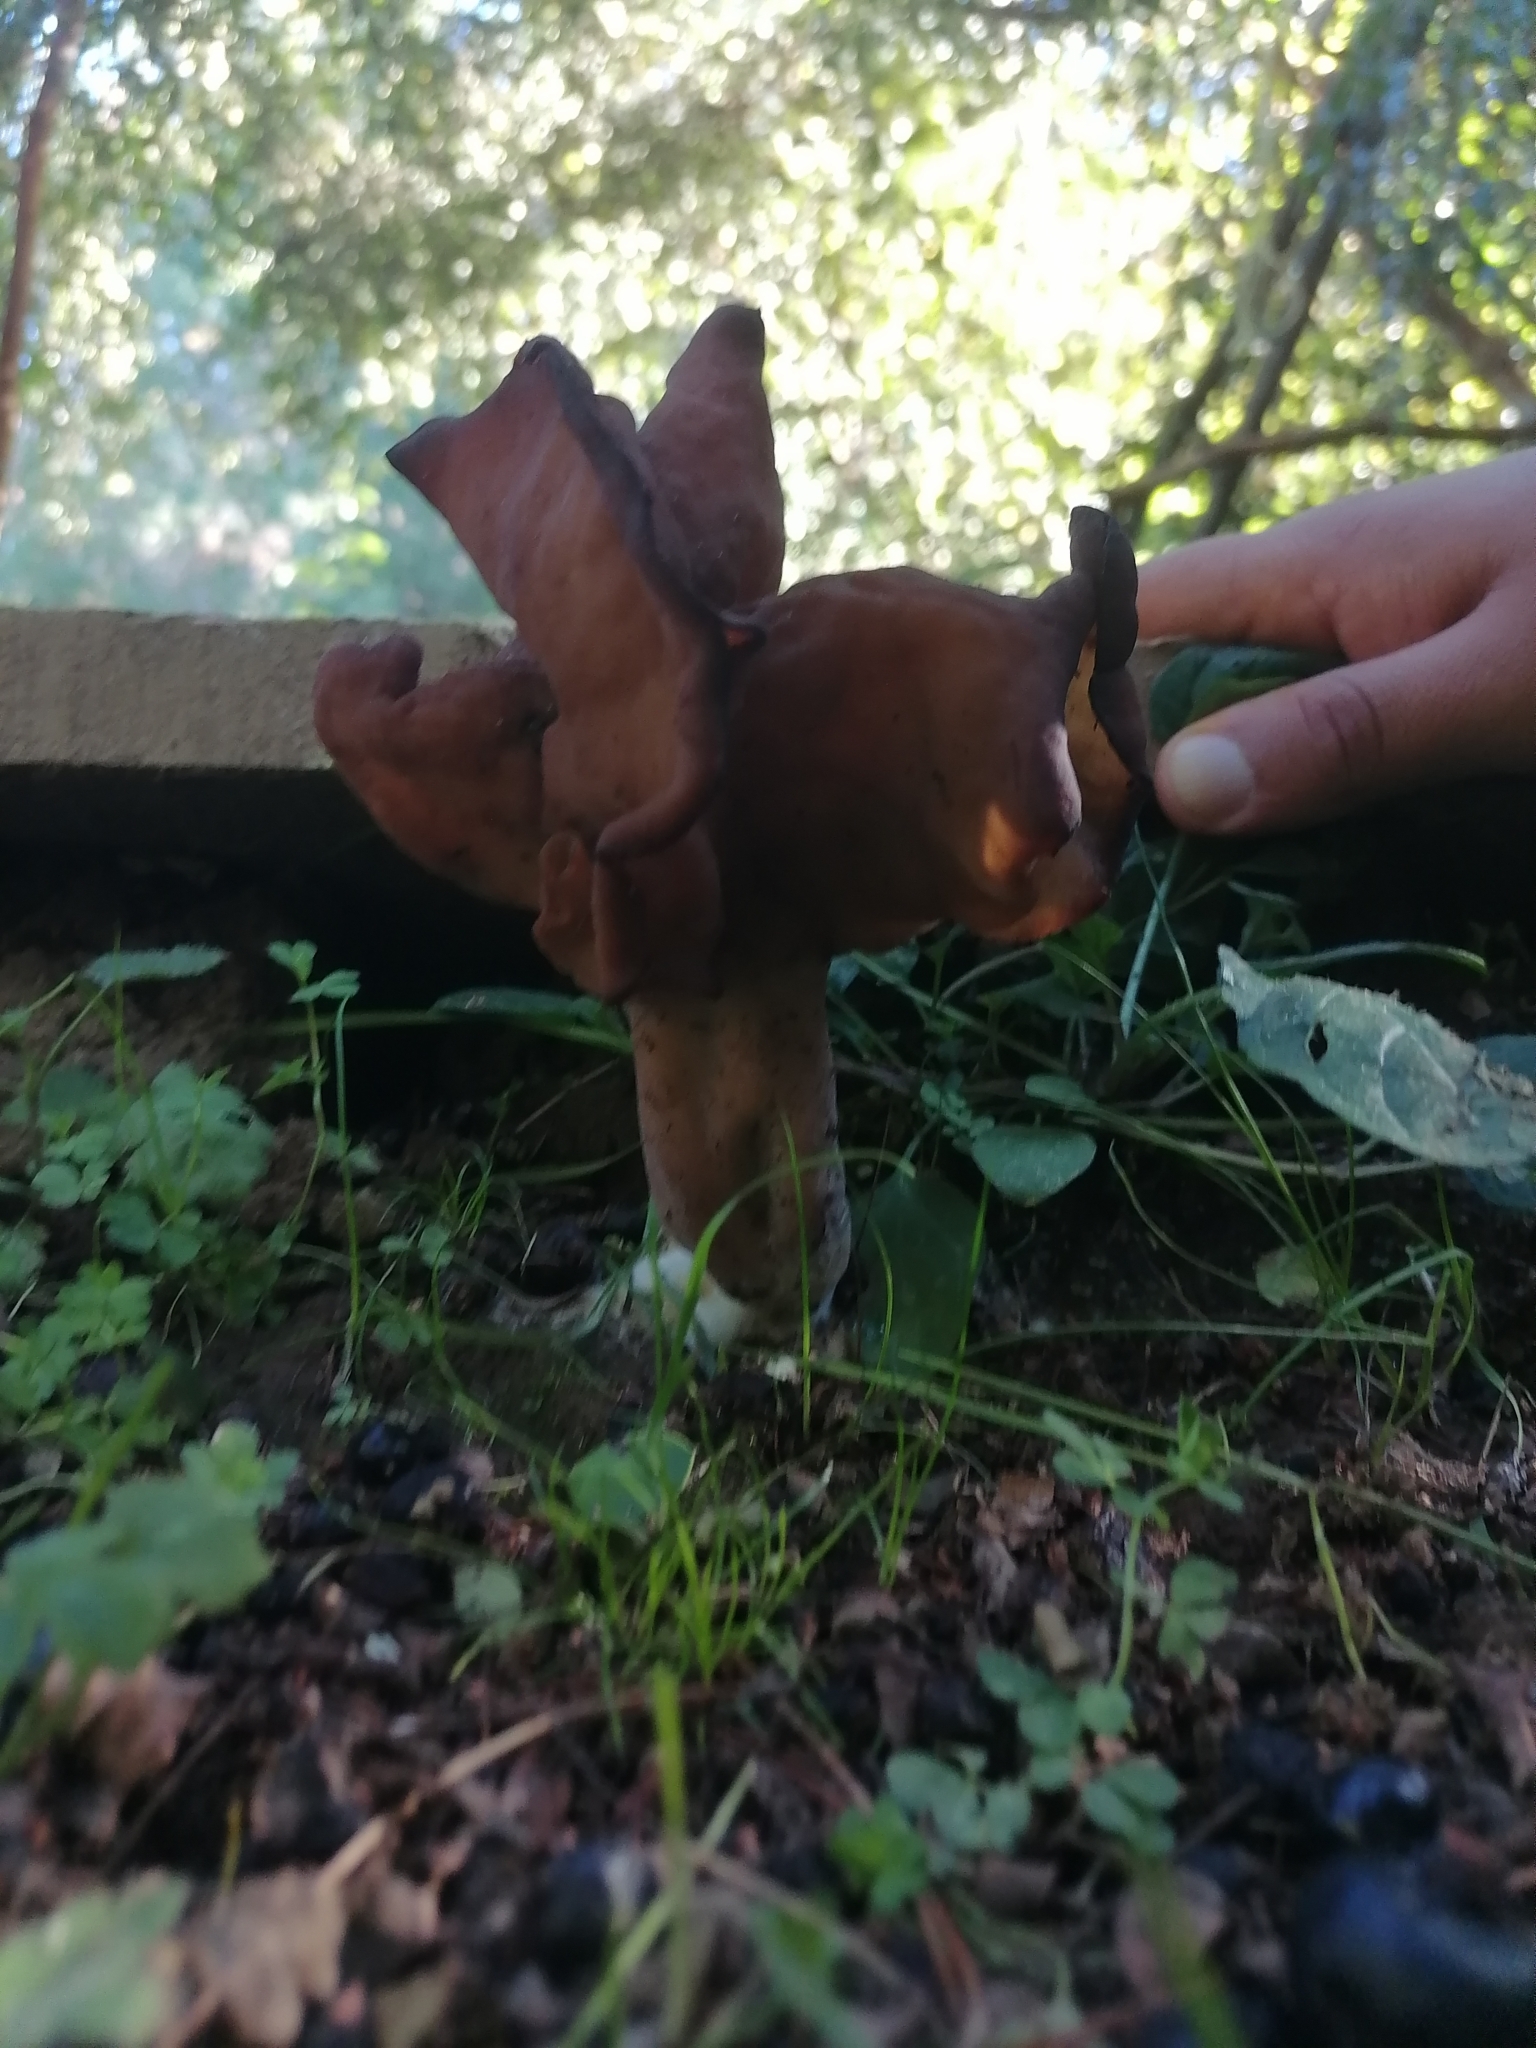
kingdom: Fungi
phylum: Ascomycota
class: Pezizomycetes
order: Pezizales
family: Discinaceae
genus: Gyromitra
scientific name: Gyromitra infula
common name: Pouched false morel
